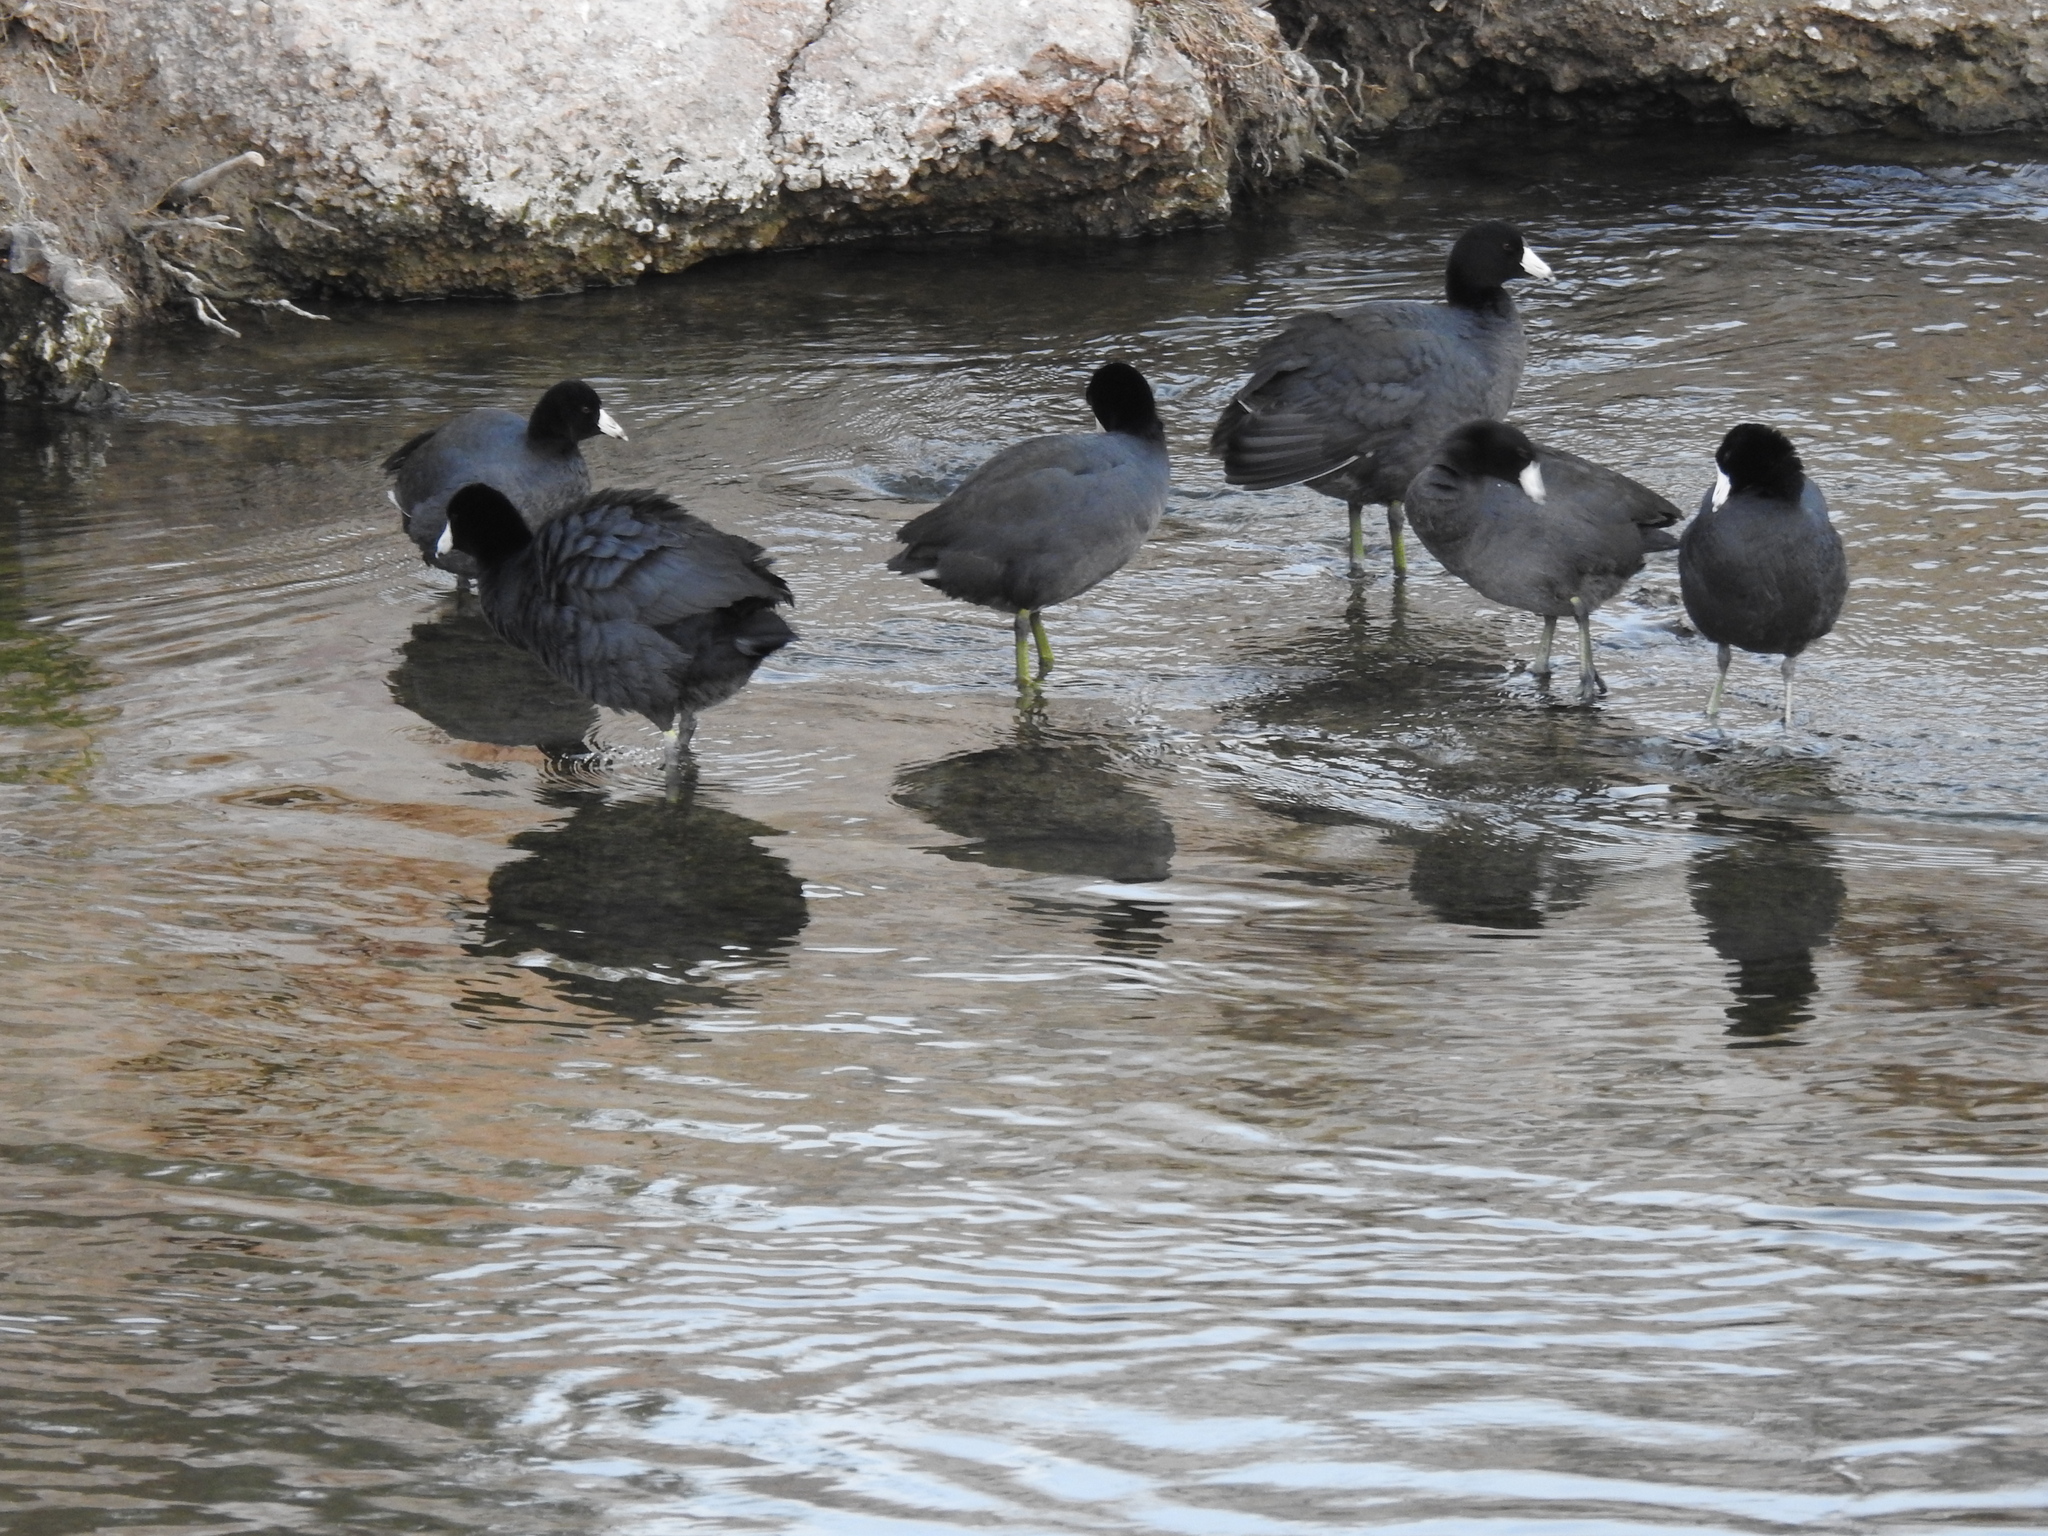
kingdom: Animalia
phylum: Chordata
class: Aves
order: Gruiformes
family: Rallidae
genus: Fulica
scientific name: Fulica americana
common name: American coot
